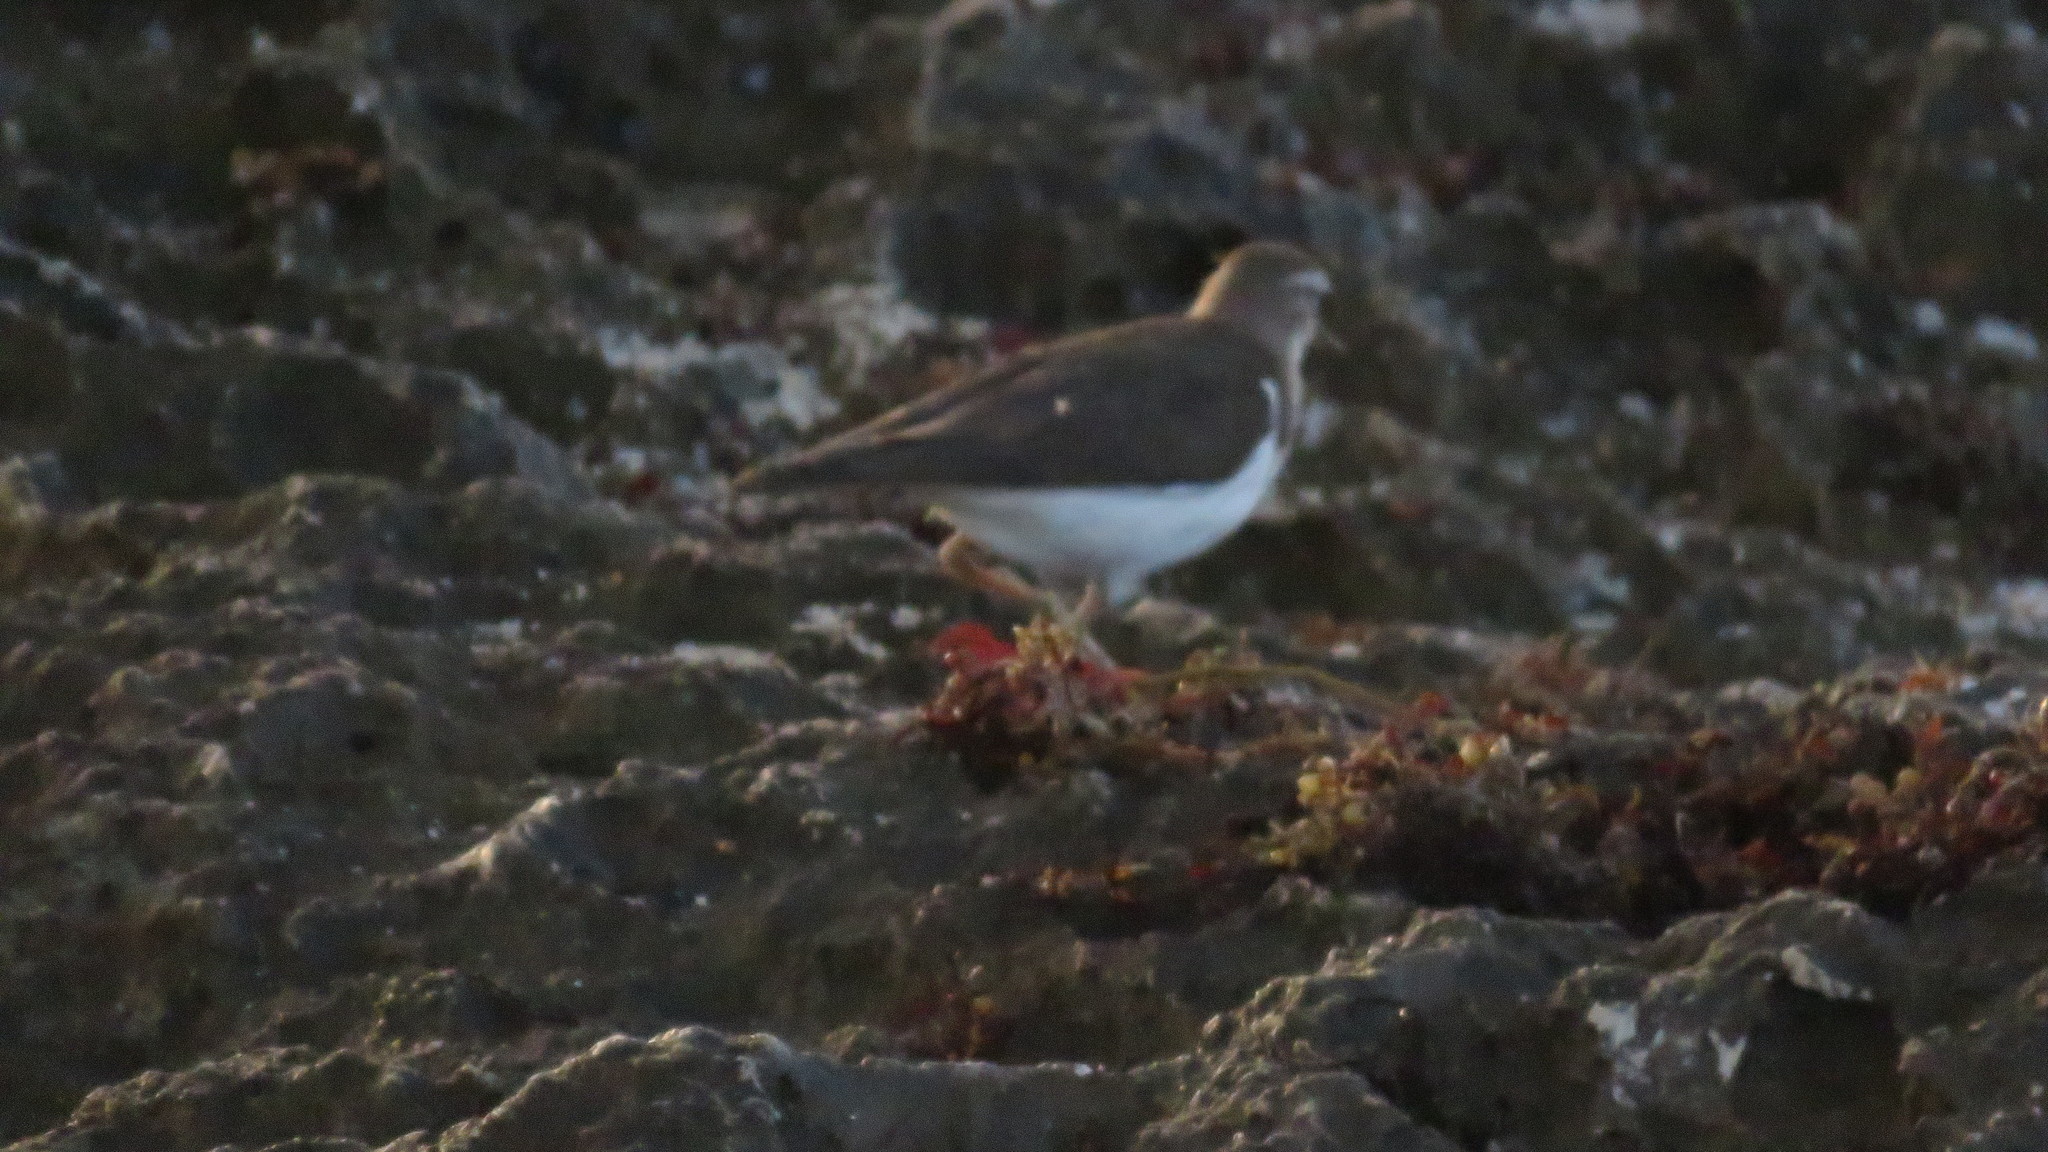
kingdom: Animalia
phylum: Chordata
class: Aves
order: Charadriiformes
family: Scolopacidae
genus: Actitis
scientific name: Actitis macularius
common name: Spotted sandpiper
